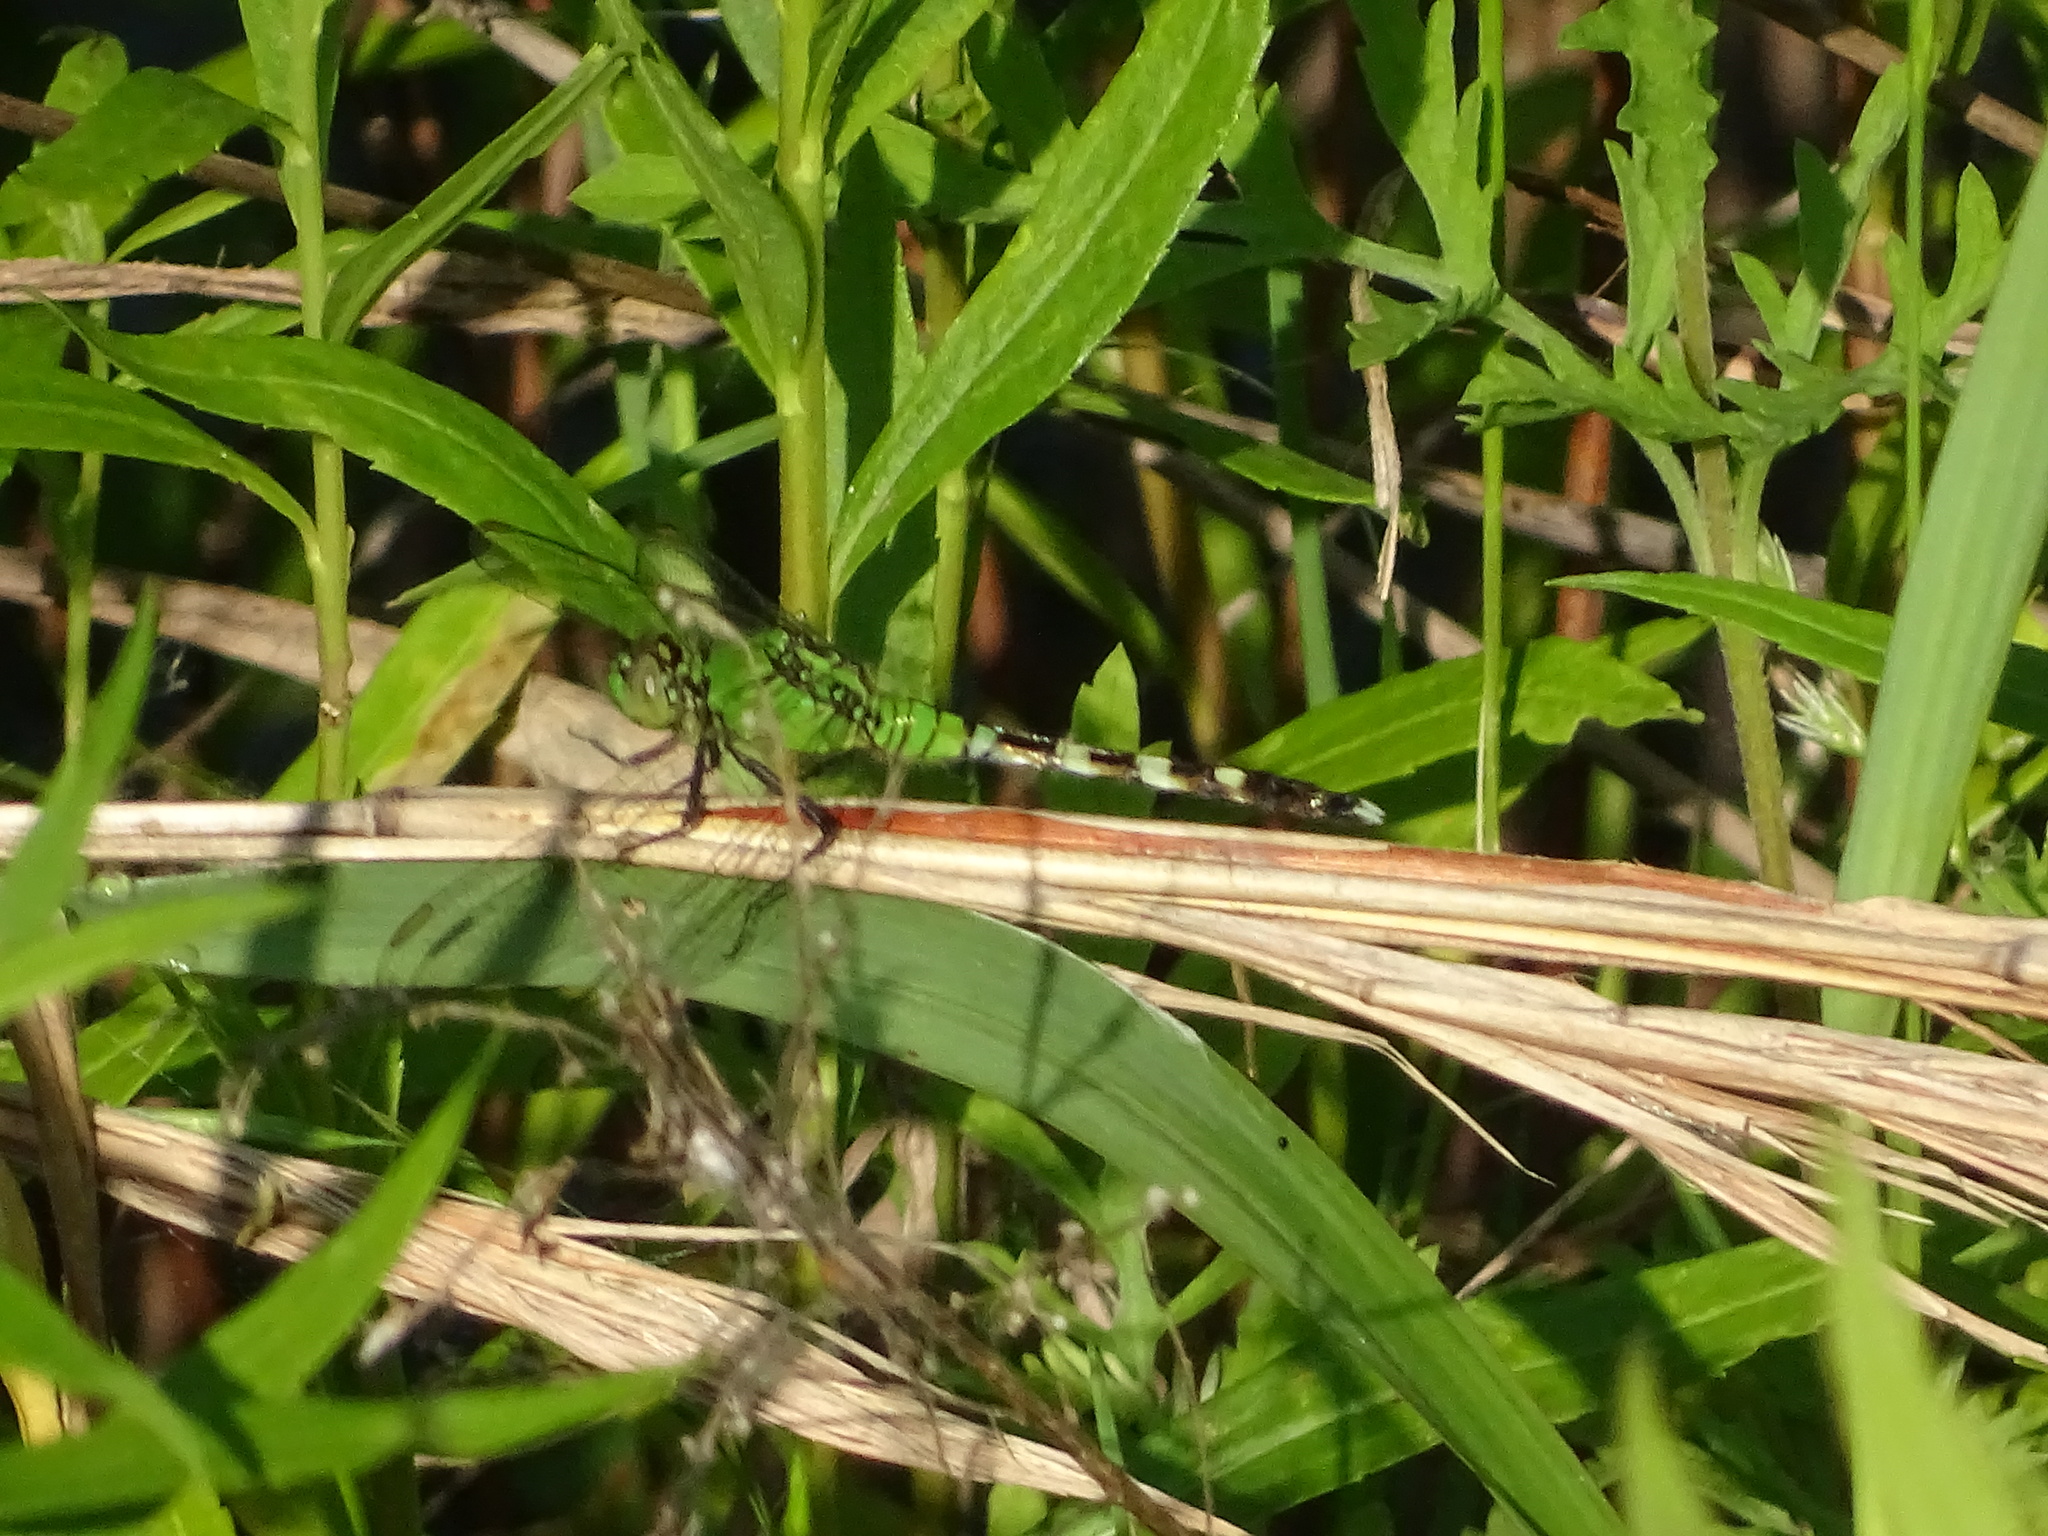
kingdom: Animalia
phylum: Arthropoda
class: Insecta
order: Odonata
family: Libellulidae
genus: Erythemis
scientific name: Erythemis simplicicollis
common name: Eastern pondhawk
